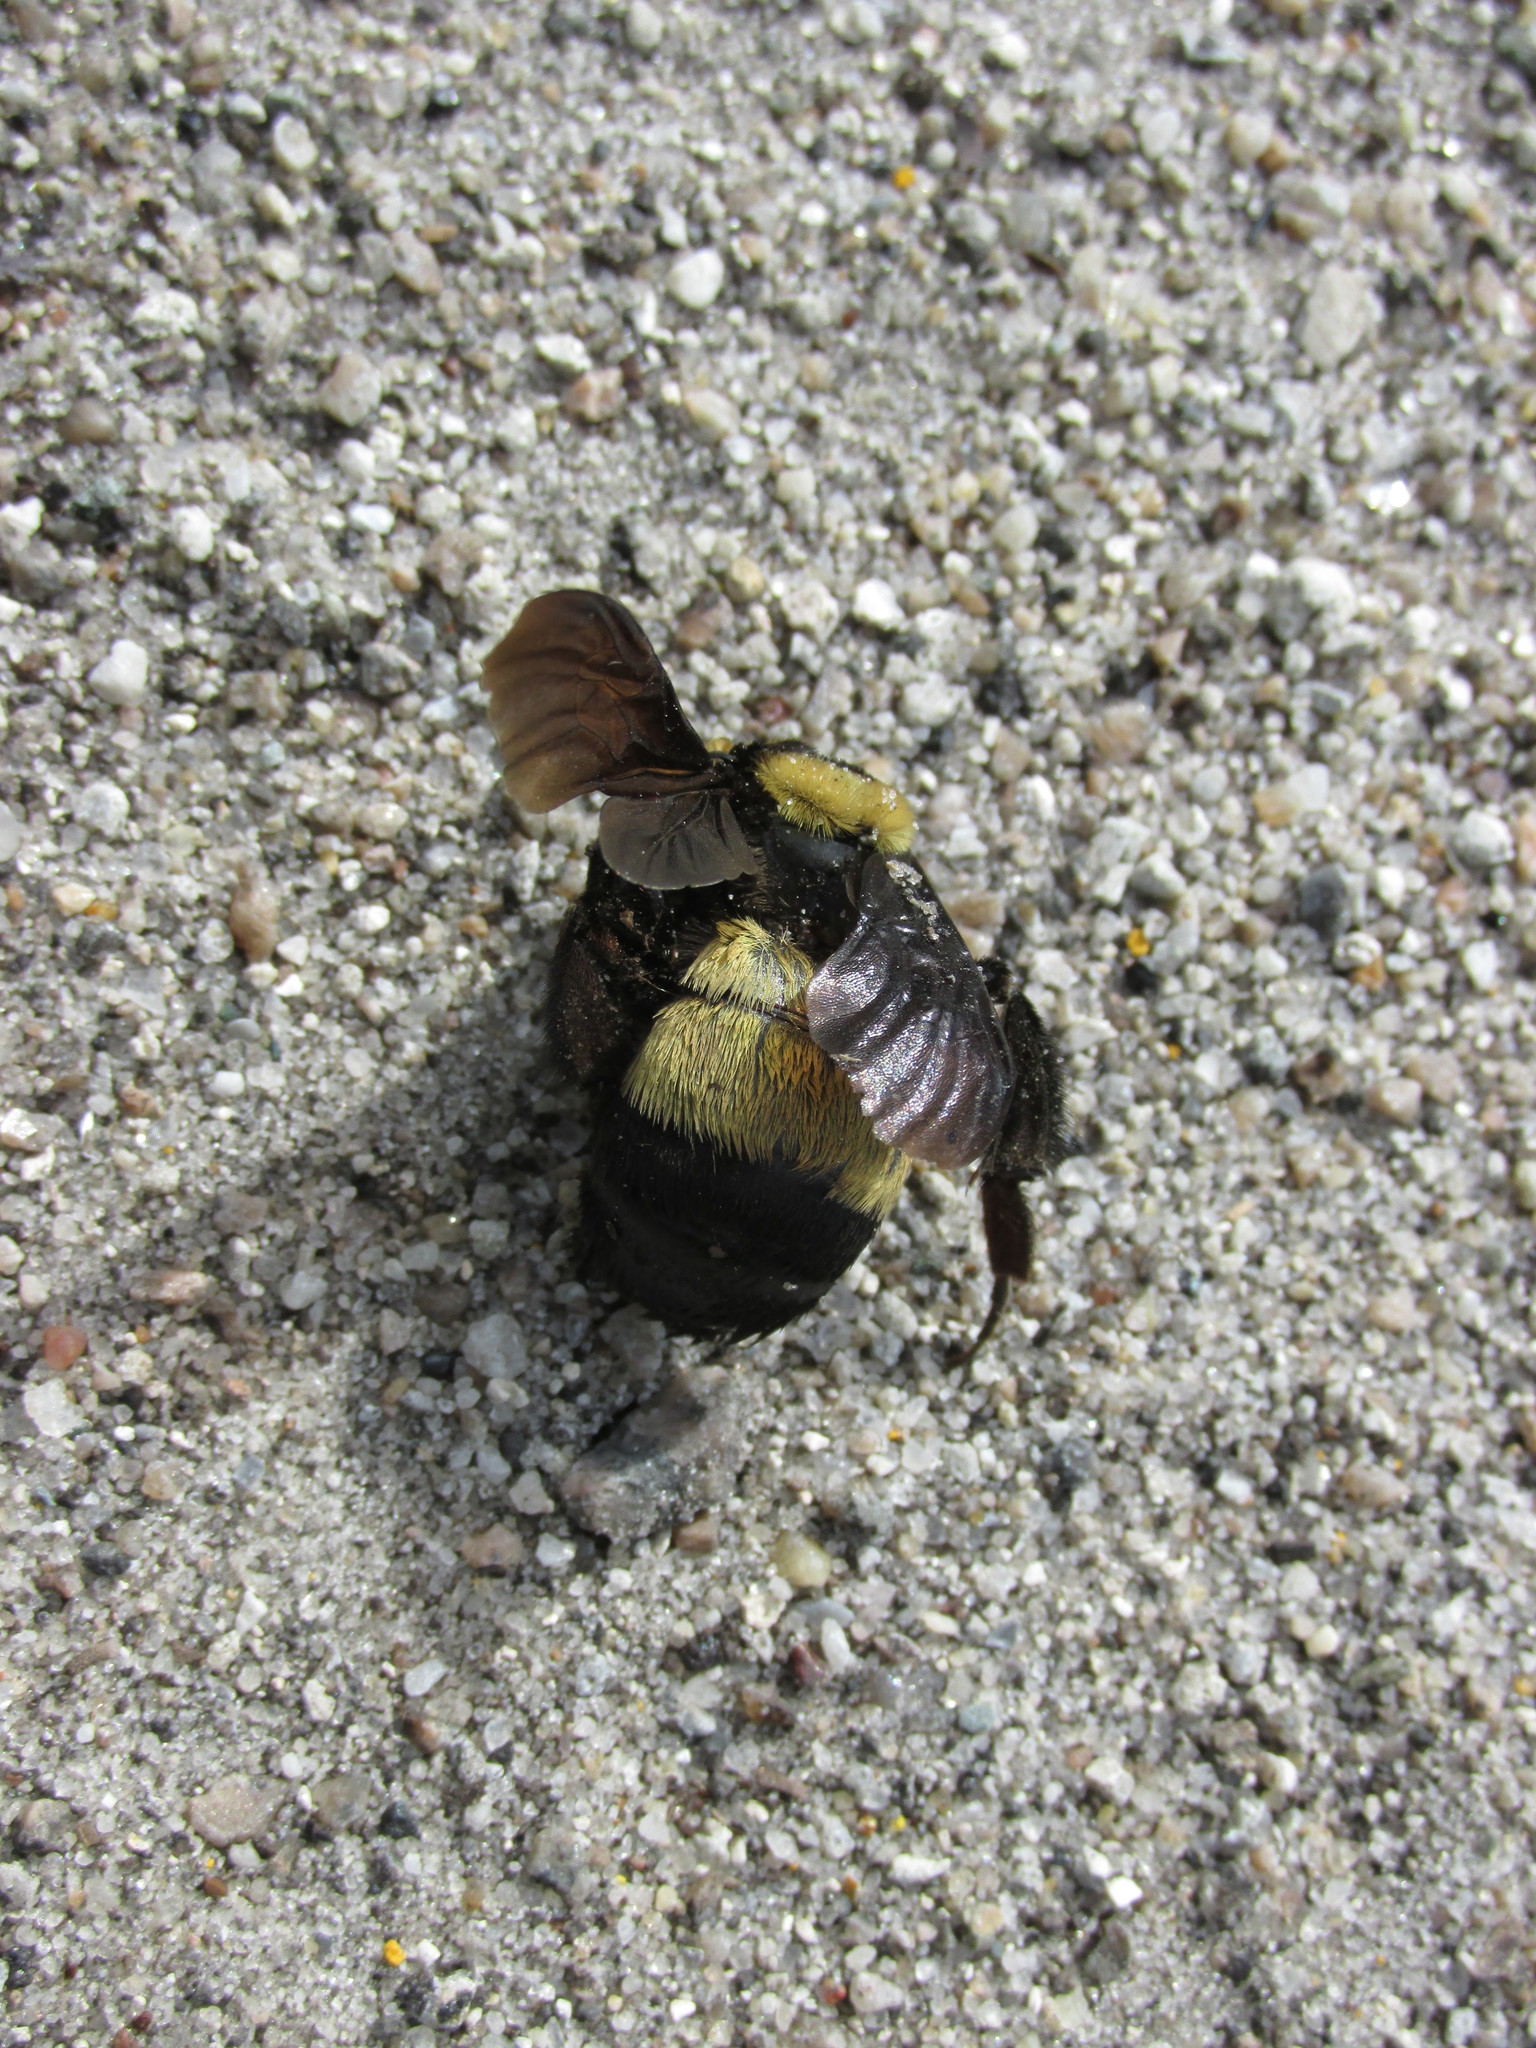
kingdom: Animalia
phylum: Arthropoda
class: Insecta
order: Hymenoptera
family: Apidae
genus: Bombus
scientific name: Bombus fraternus
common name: Southern plains bumble bee
